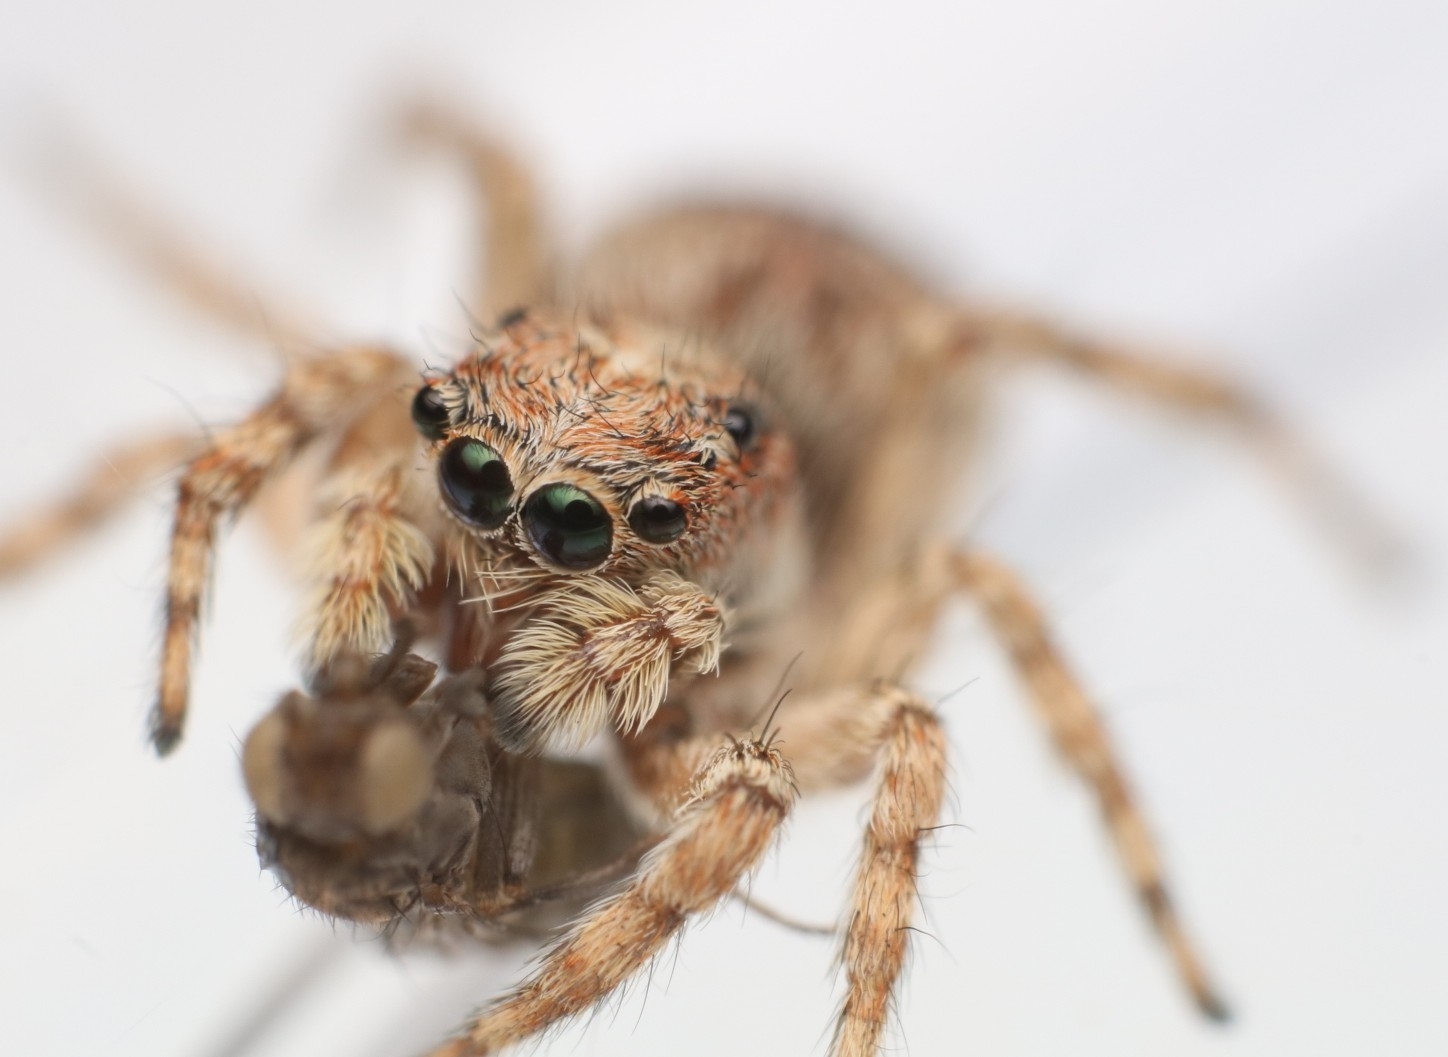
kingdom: Animalia
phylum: Arthropoda
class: Arachnida
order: Araneae
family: Salticidae
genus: Attulus
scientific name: Attulus fasciger
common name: Asiatic wall jumping spider
